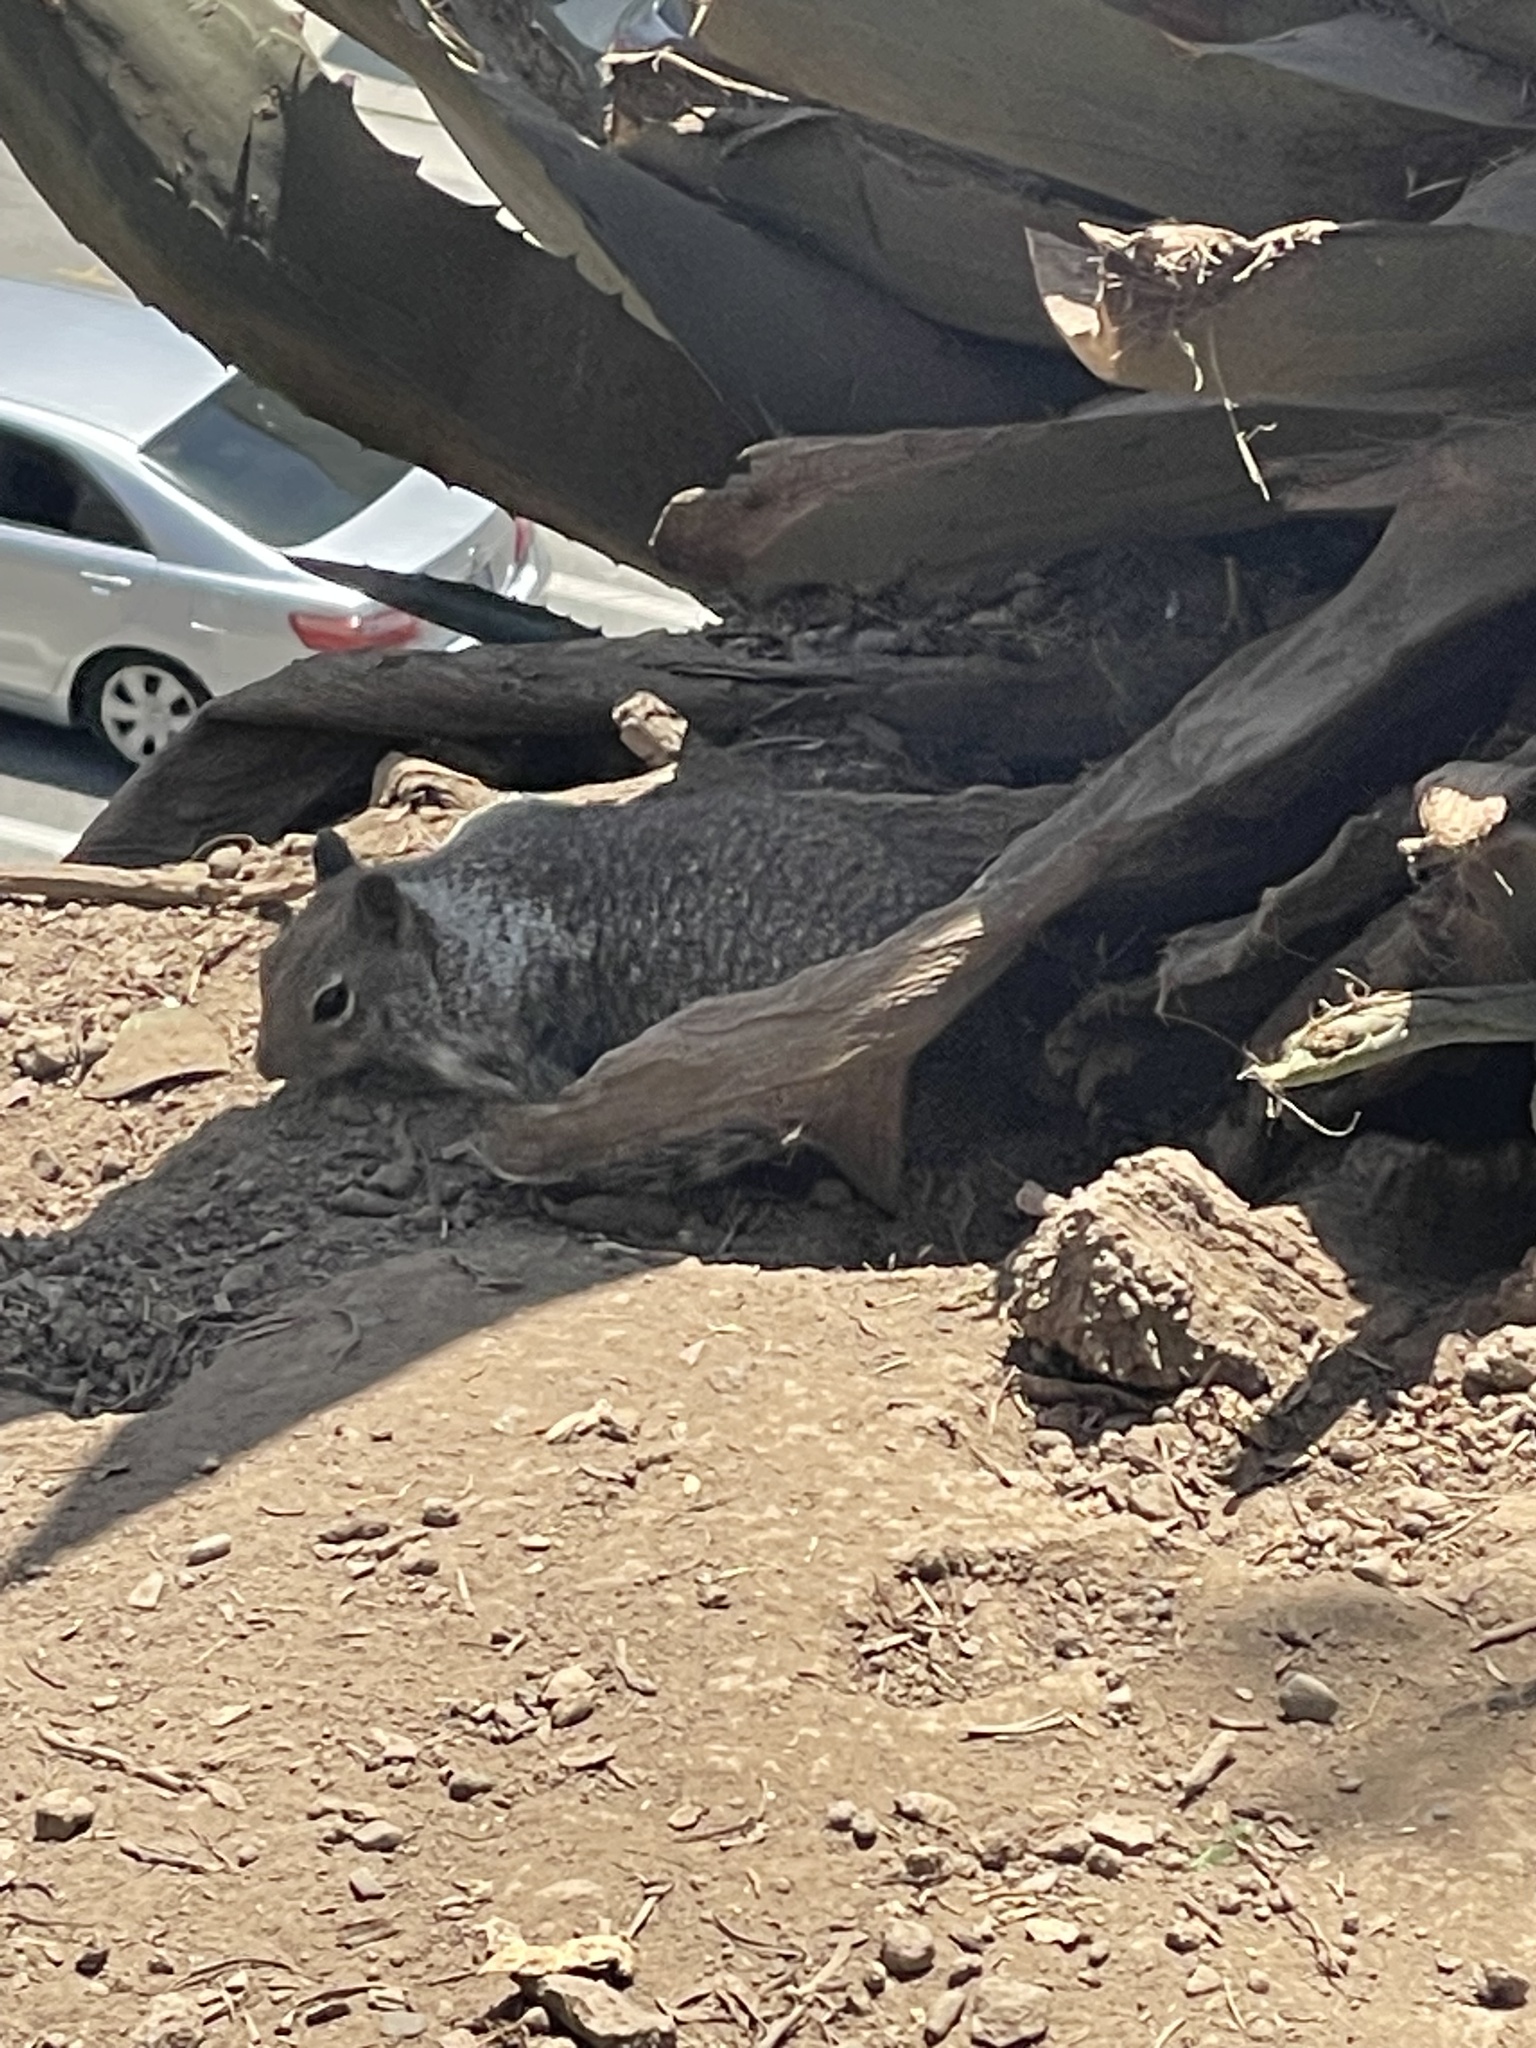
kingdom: Animalia
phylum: Chordata
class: Mammalia
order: Rodentia
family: Sciuridae
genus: Otospermophilus
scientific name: Otospermophilus beecheyi
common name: California ground squirrel
